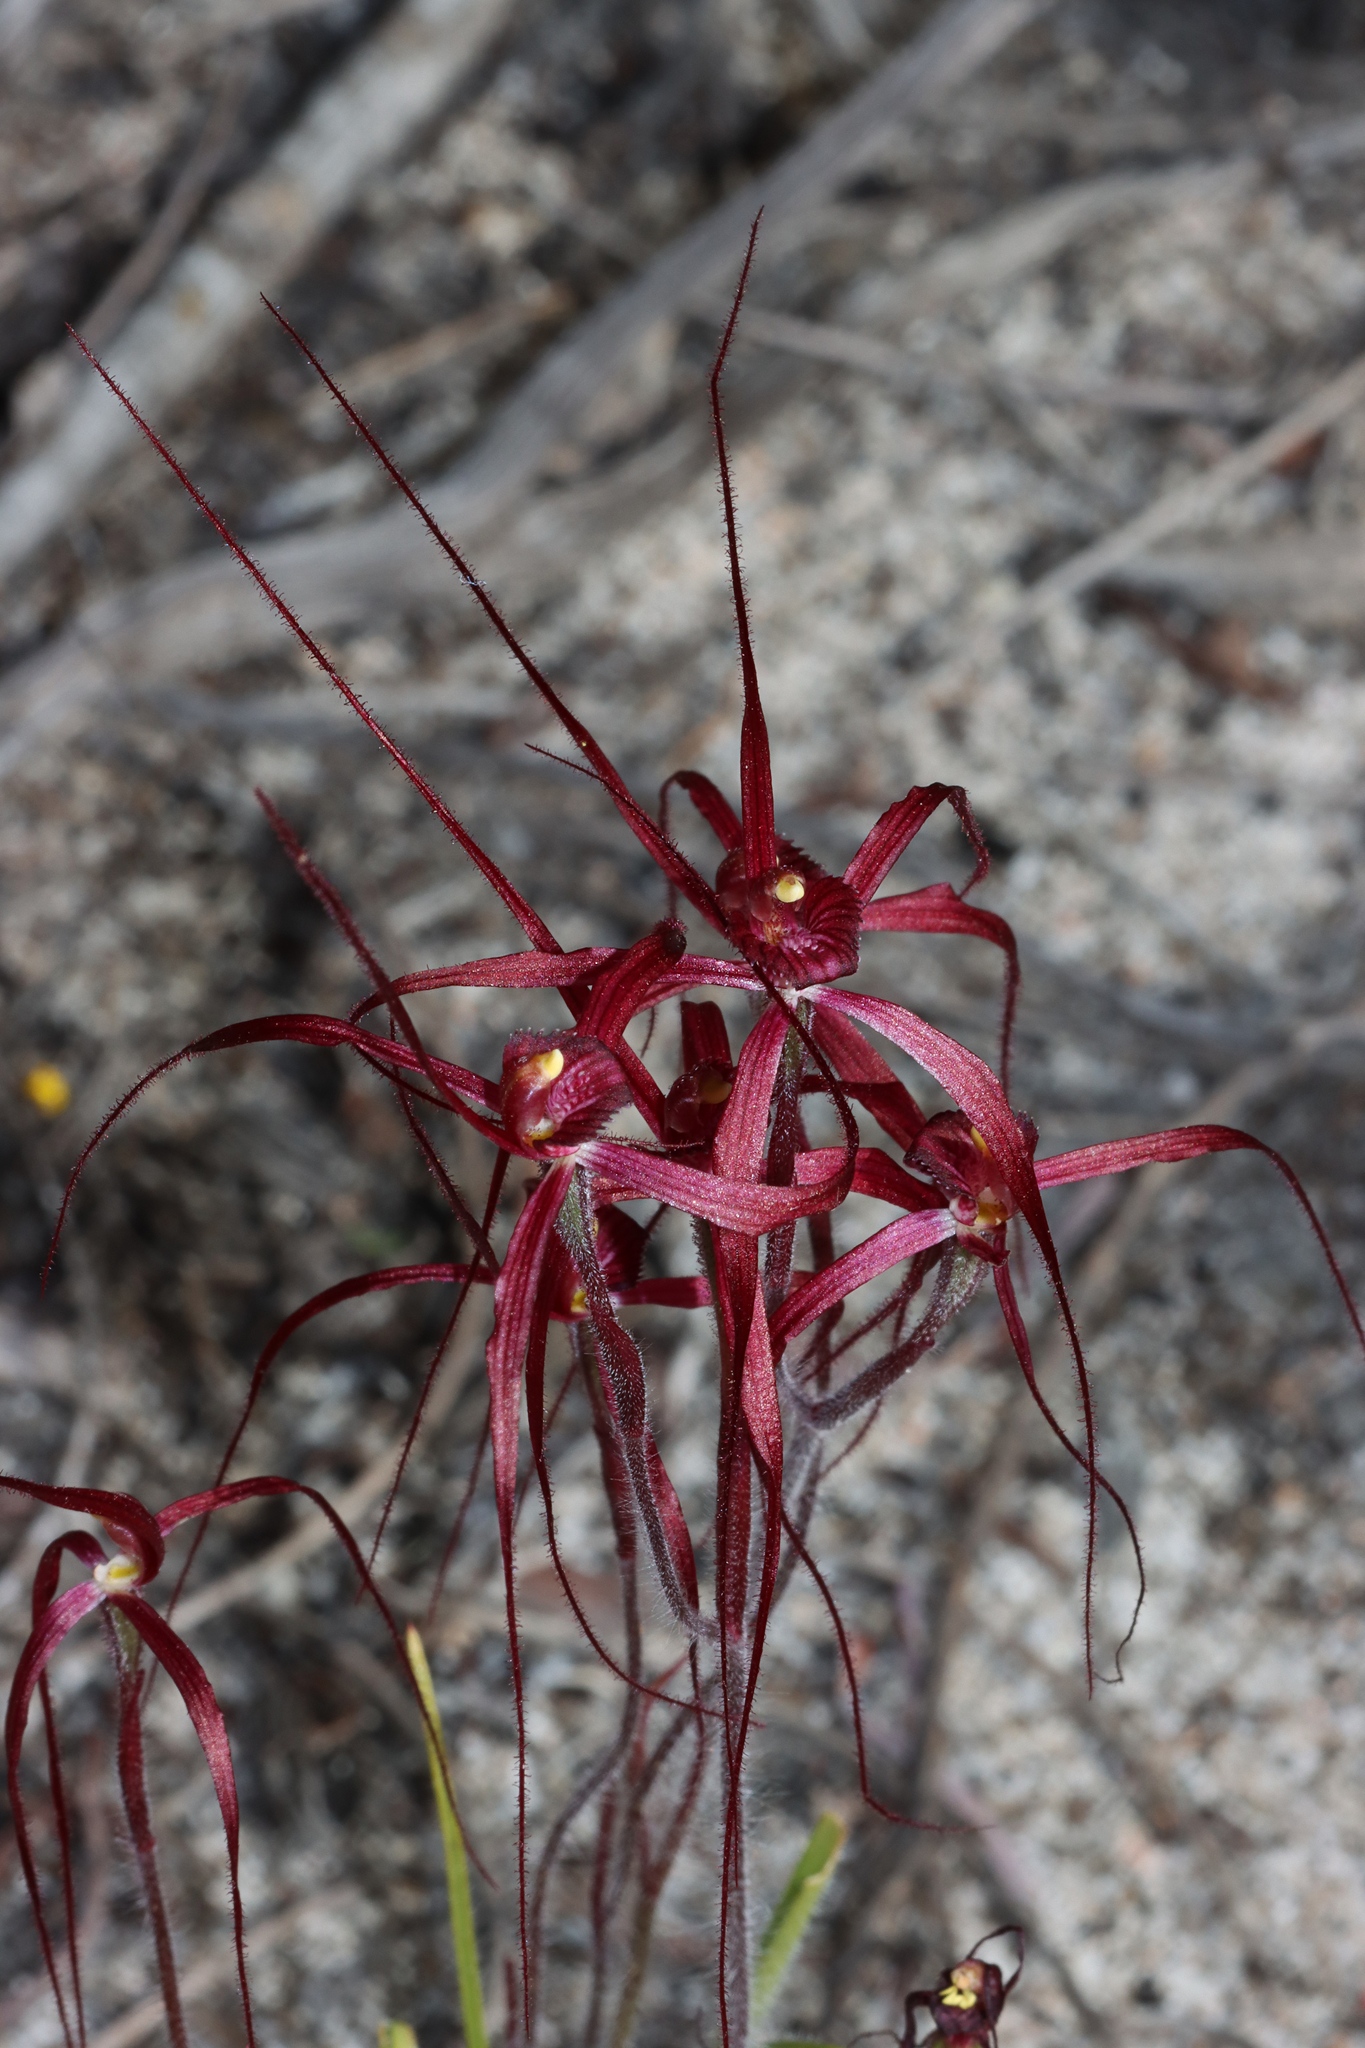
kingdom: Plantae
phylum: Tracheophyta
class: Liliopsida
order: Asparagales
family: Orchidaceae
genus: Caladenia
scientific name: Caladenia filifera
